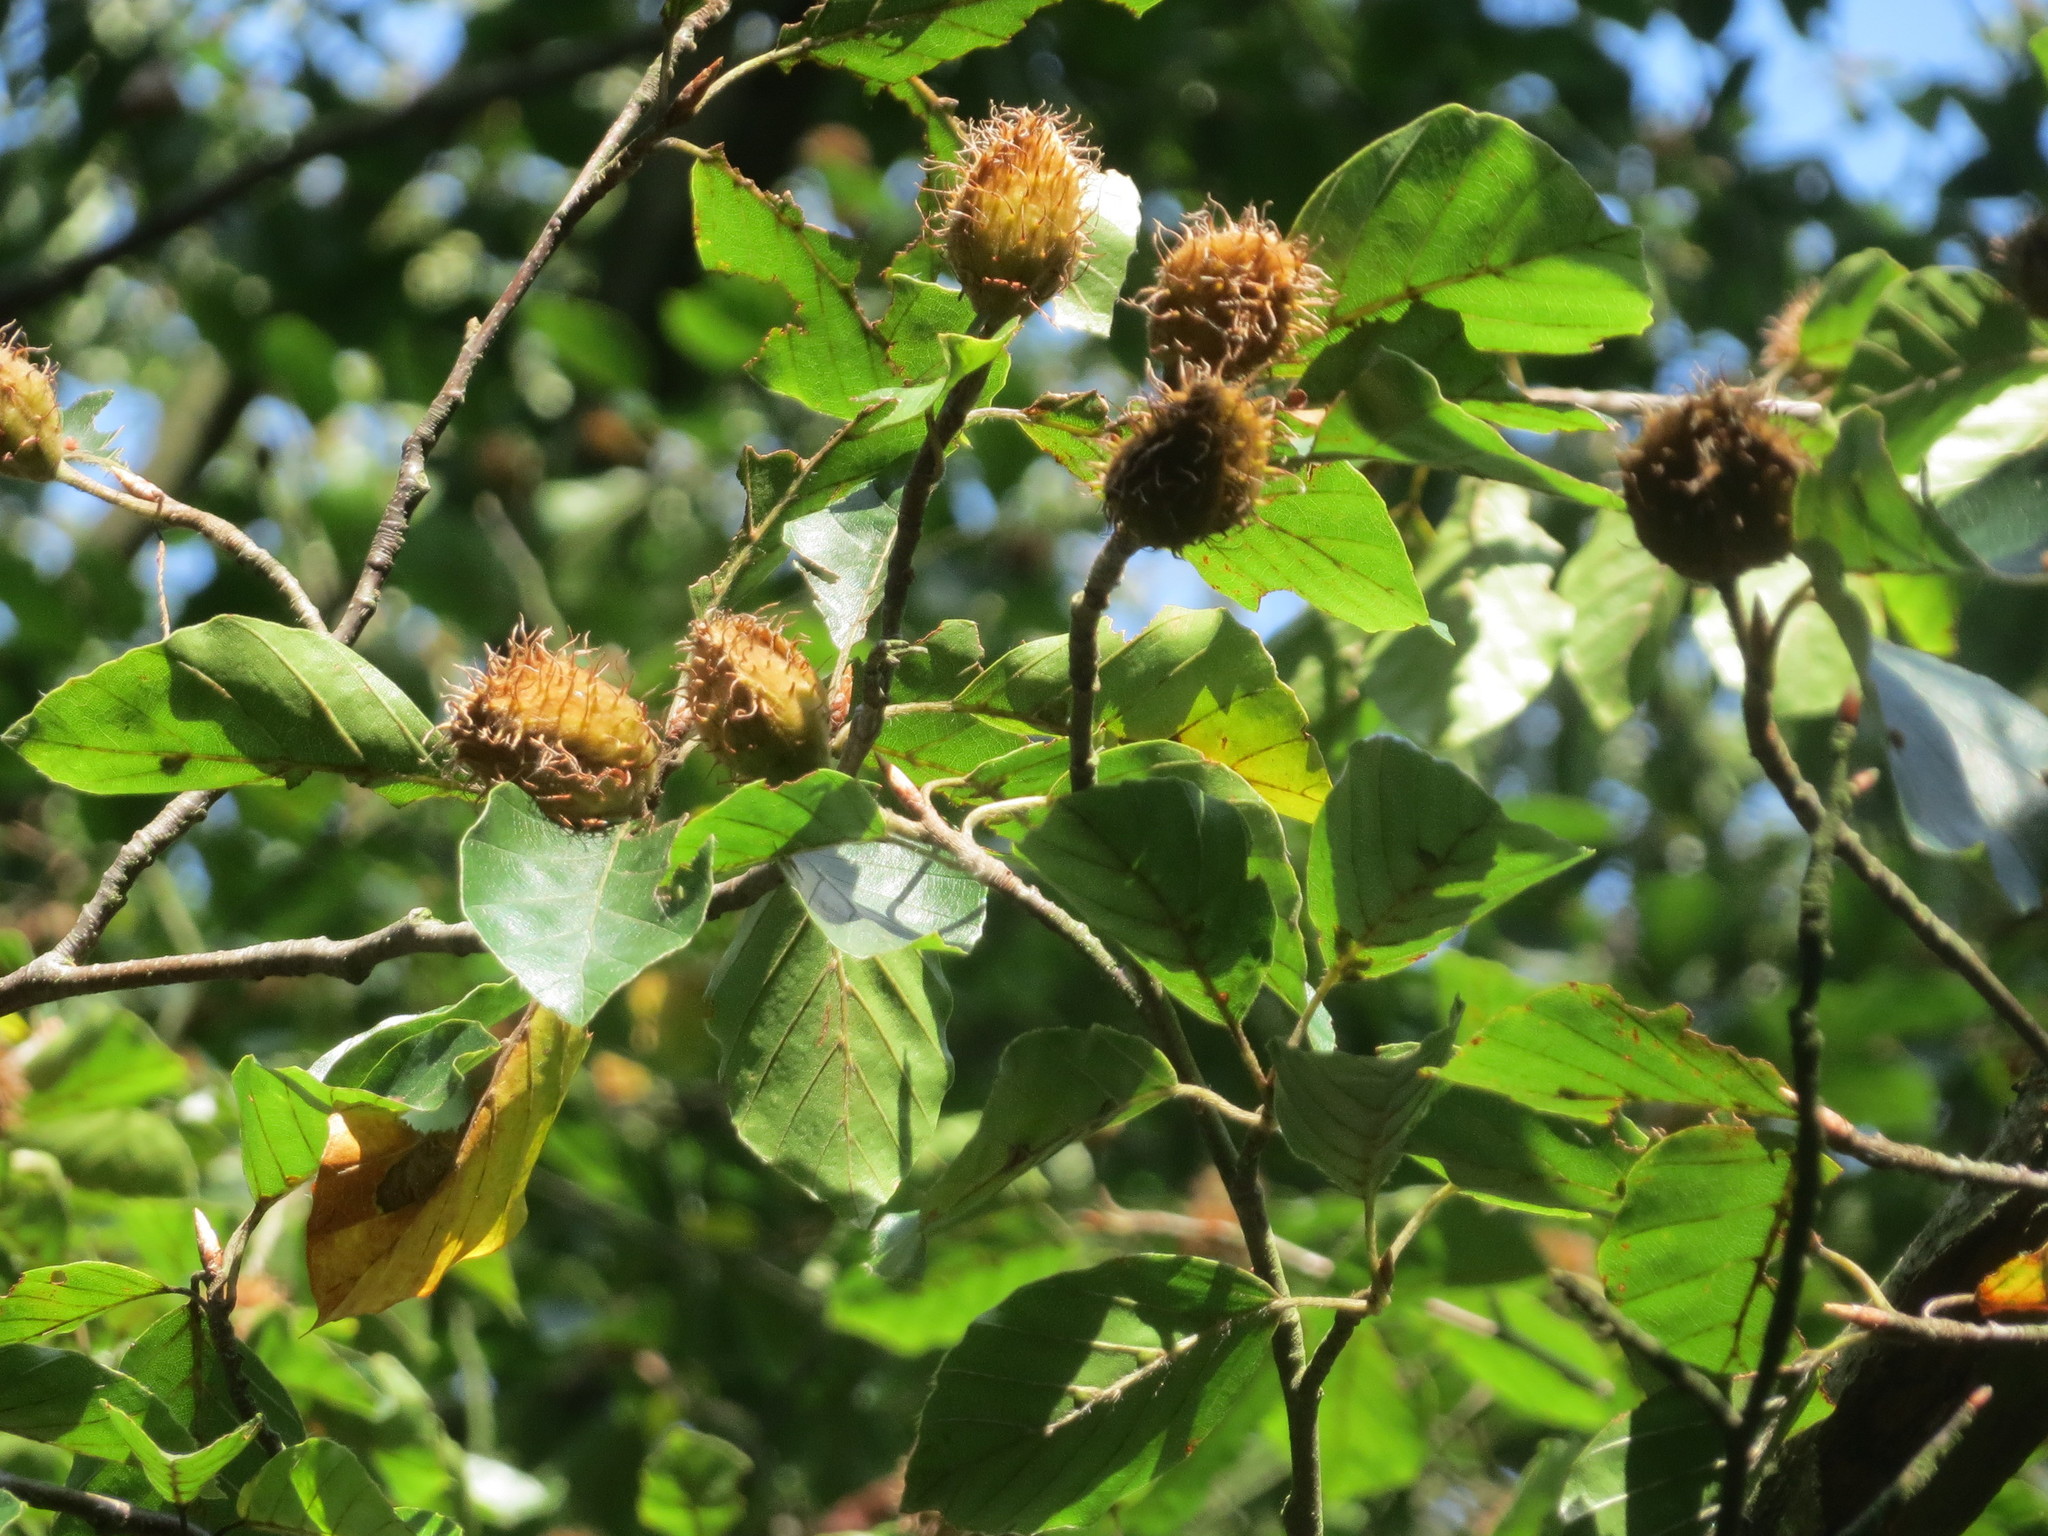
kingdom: Plantae
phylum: Tracheophyta
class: Magnoliopsida
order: Fagales
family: Fagaceae
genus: Fagus
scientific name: Fagus sylvatica
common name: Beech
